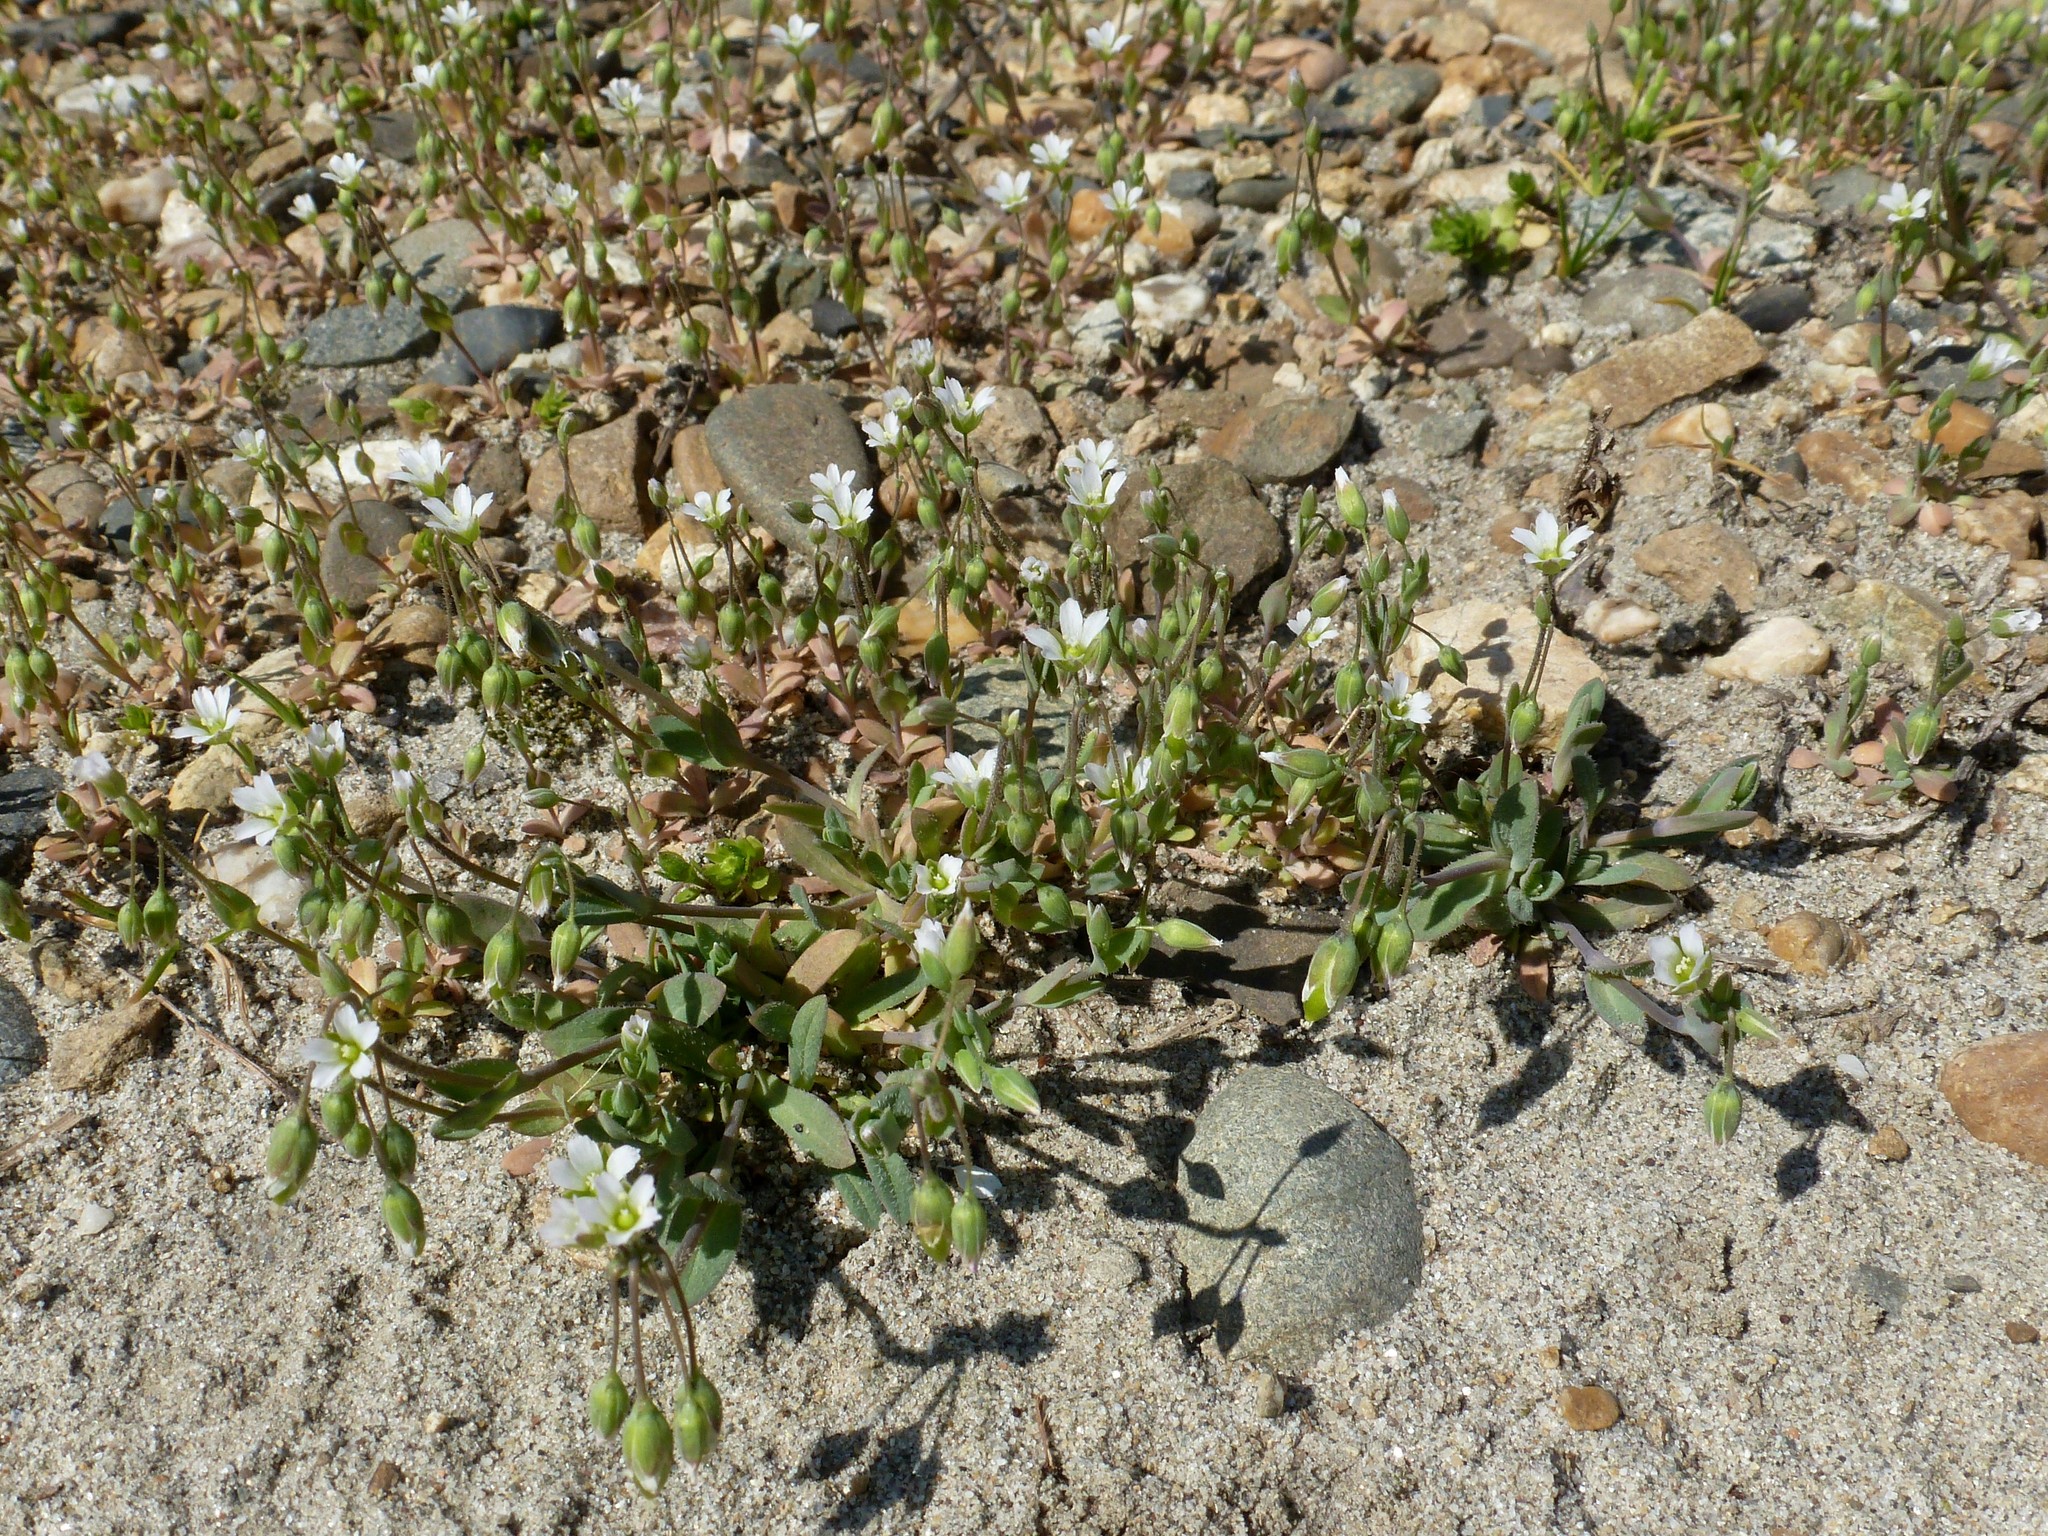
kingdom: Plantae
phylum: Tracheophyta
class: Magnoliopsida
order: Caryophyllales
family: Caryophyllaceae
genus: Holosteum
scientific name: Holosteum umbellatum
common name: Jagged chickweed
